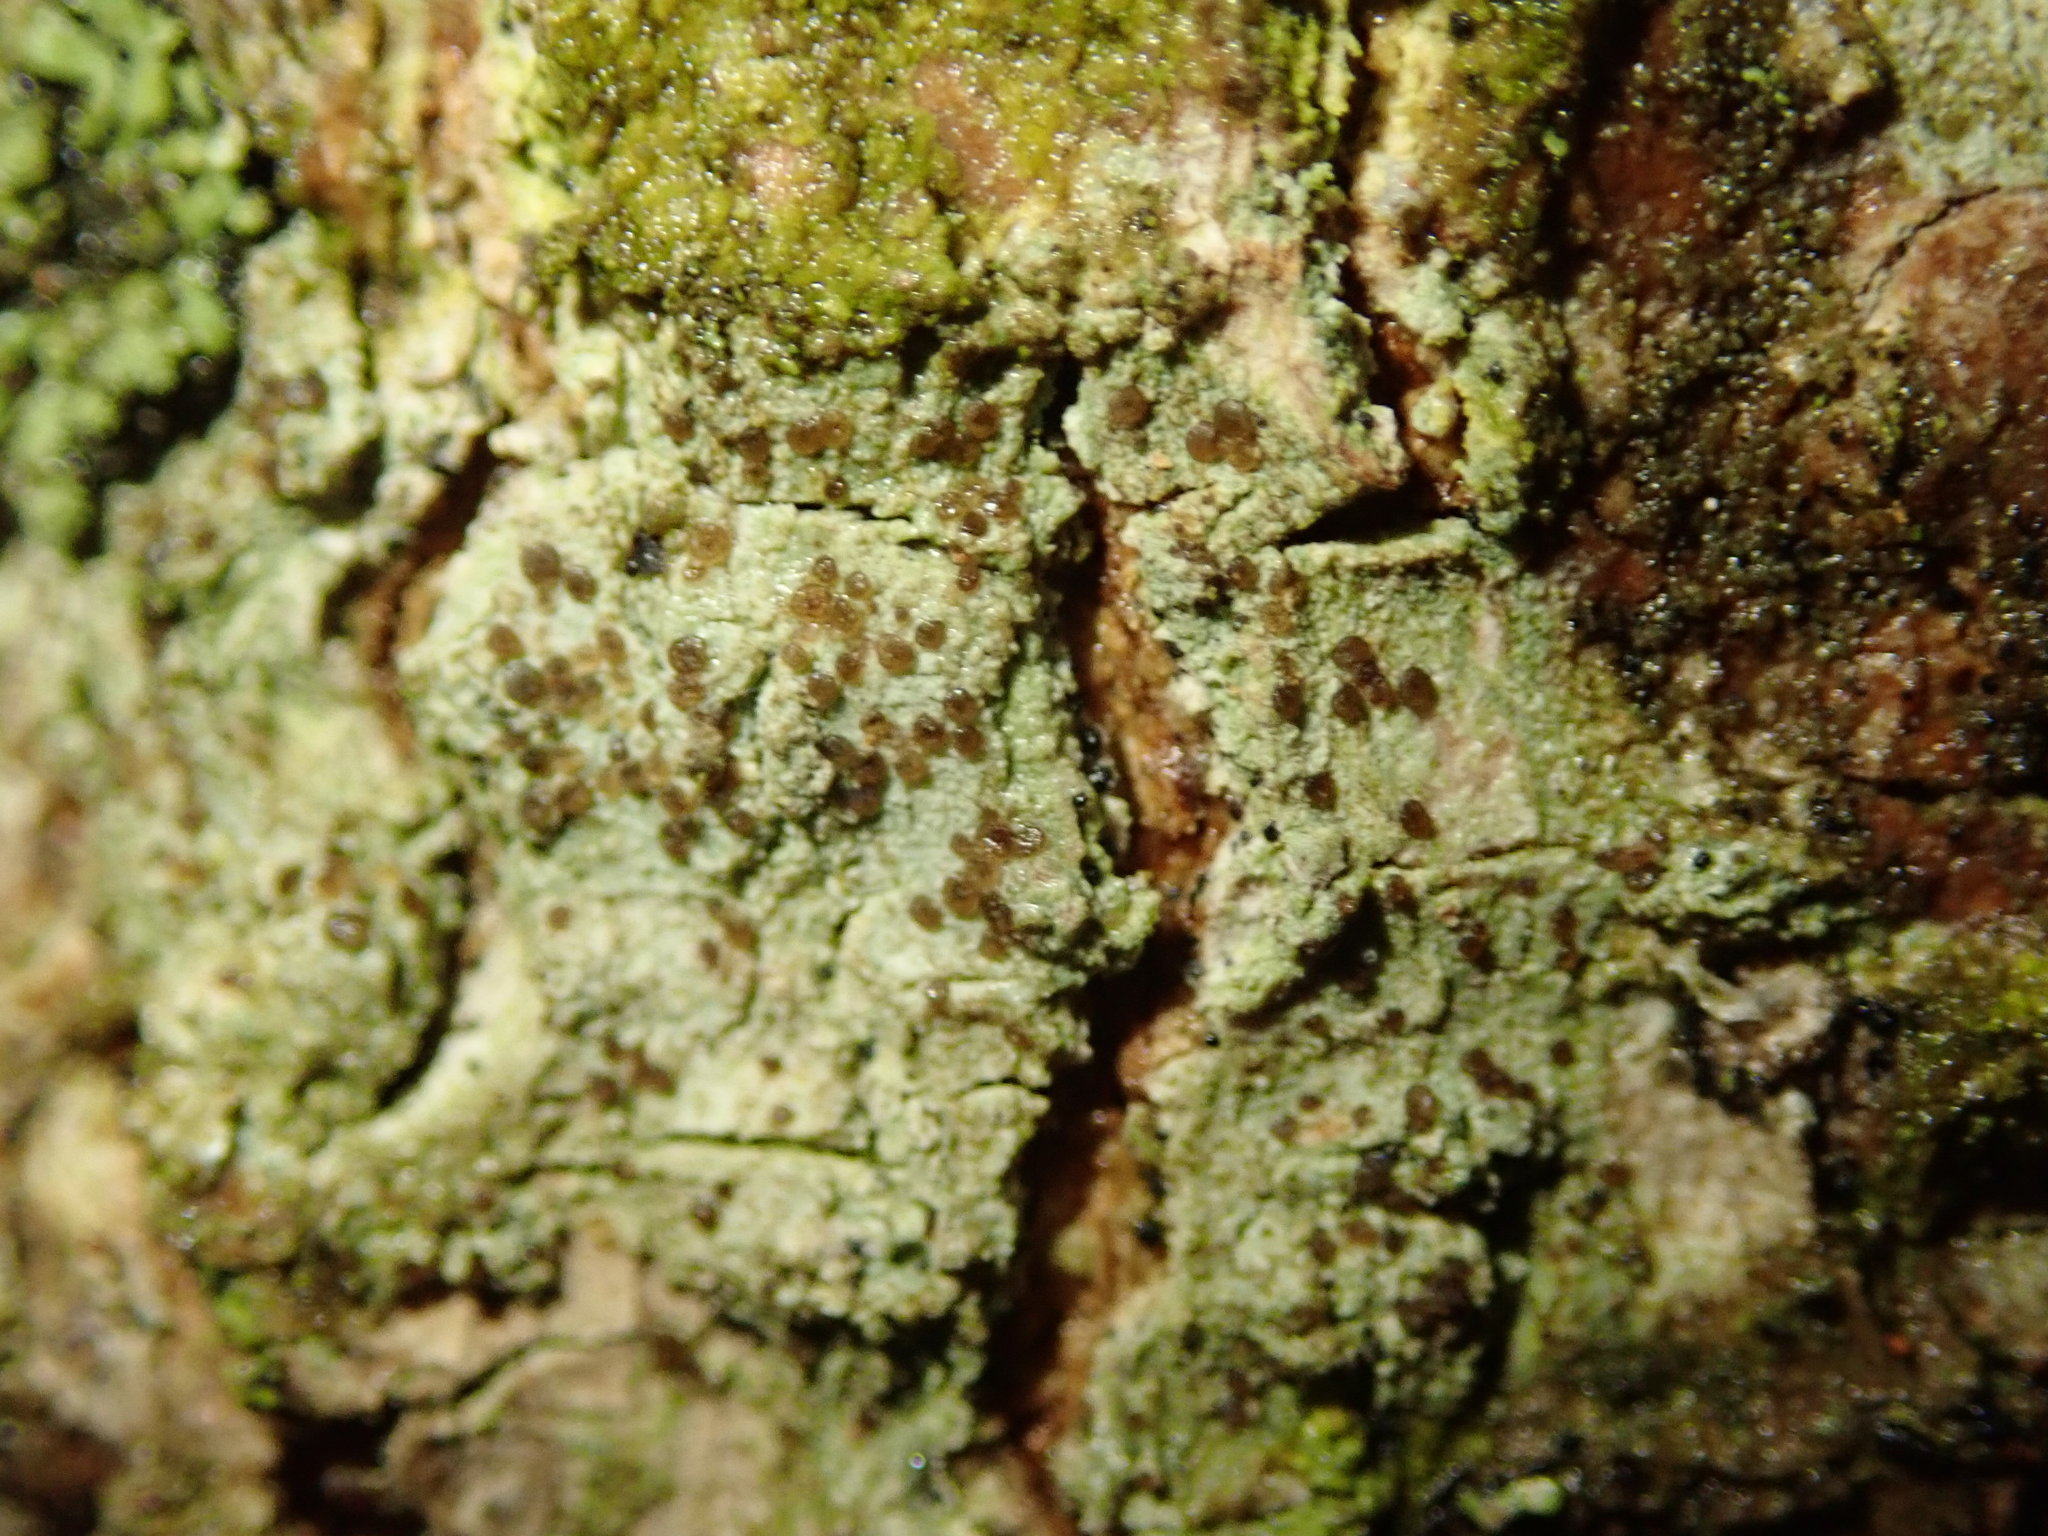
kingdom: Fungi
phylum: Ascomycota
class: Lecanoromycetes
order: Lecanorales
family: Lecanoraceae
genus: Traponora
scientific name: Traponora varians
